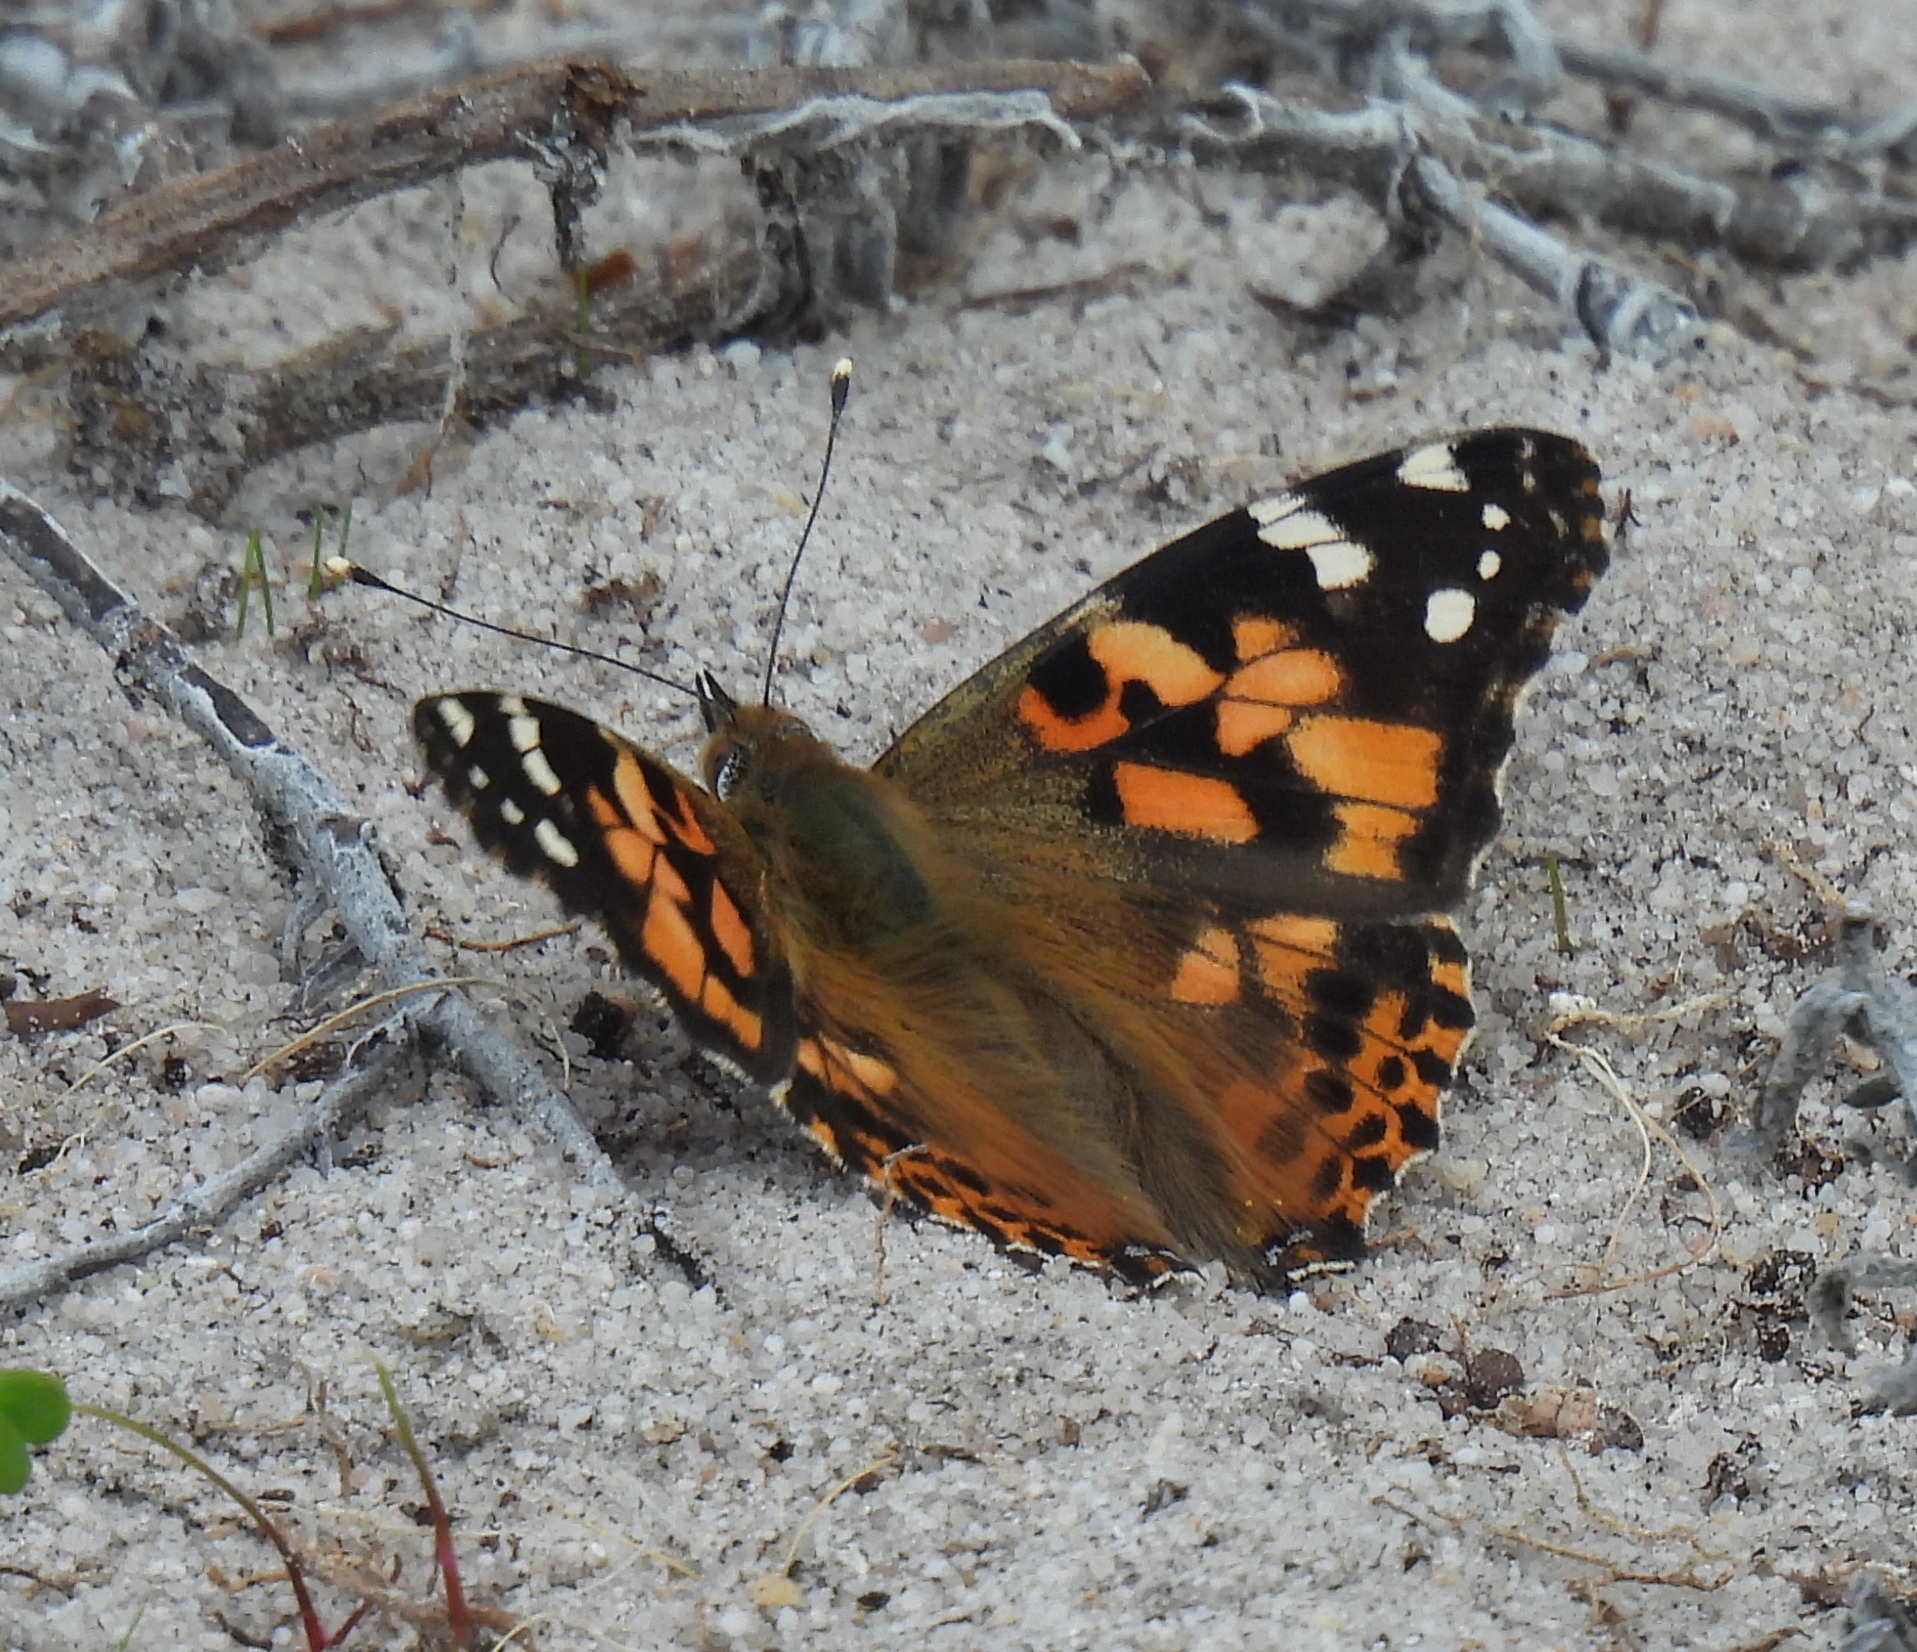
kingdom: Animalia
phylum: Arthropoda
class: Insecta
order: Lepidoptera
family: Nymphalidae
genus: Vanessa
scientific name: Vanessa cardui
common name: Painted lady
